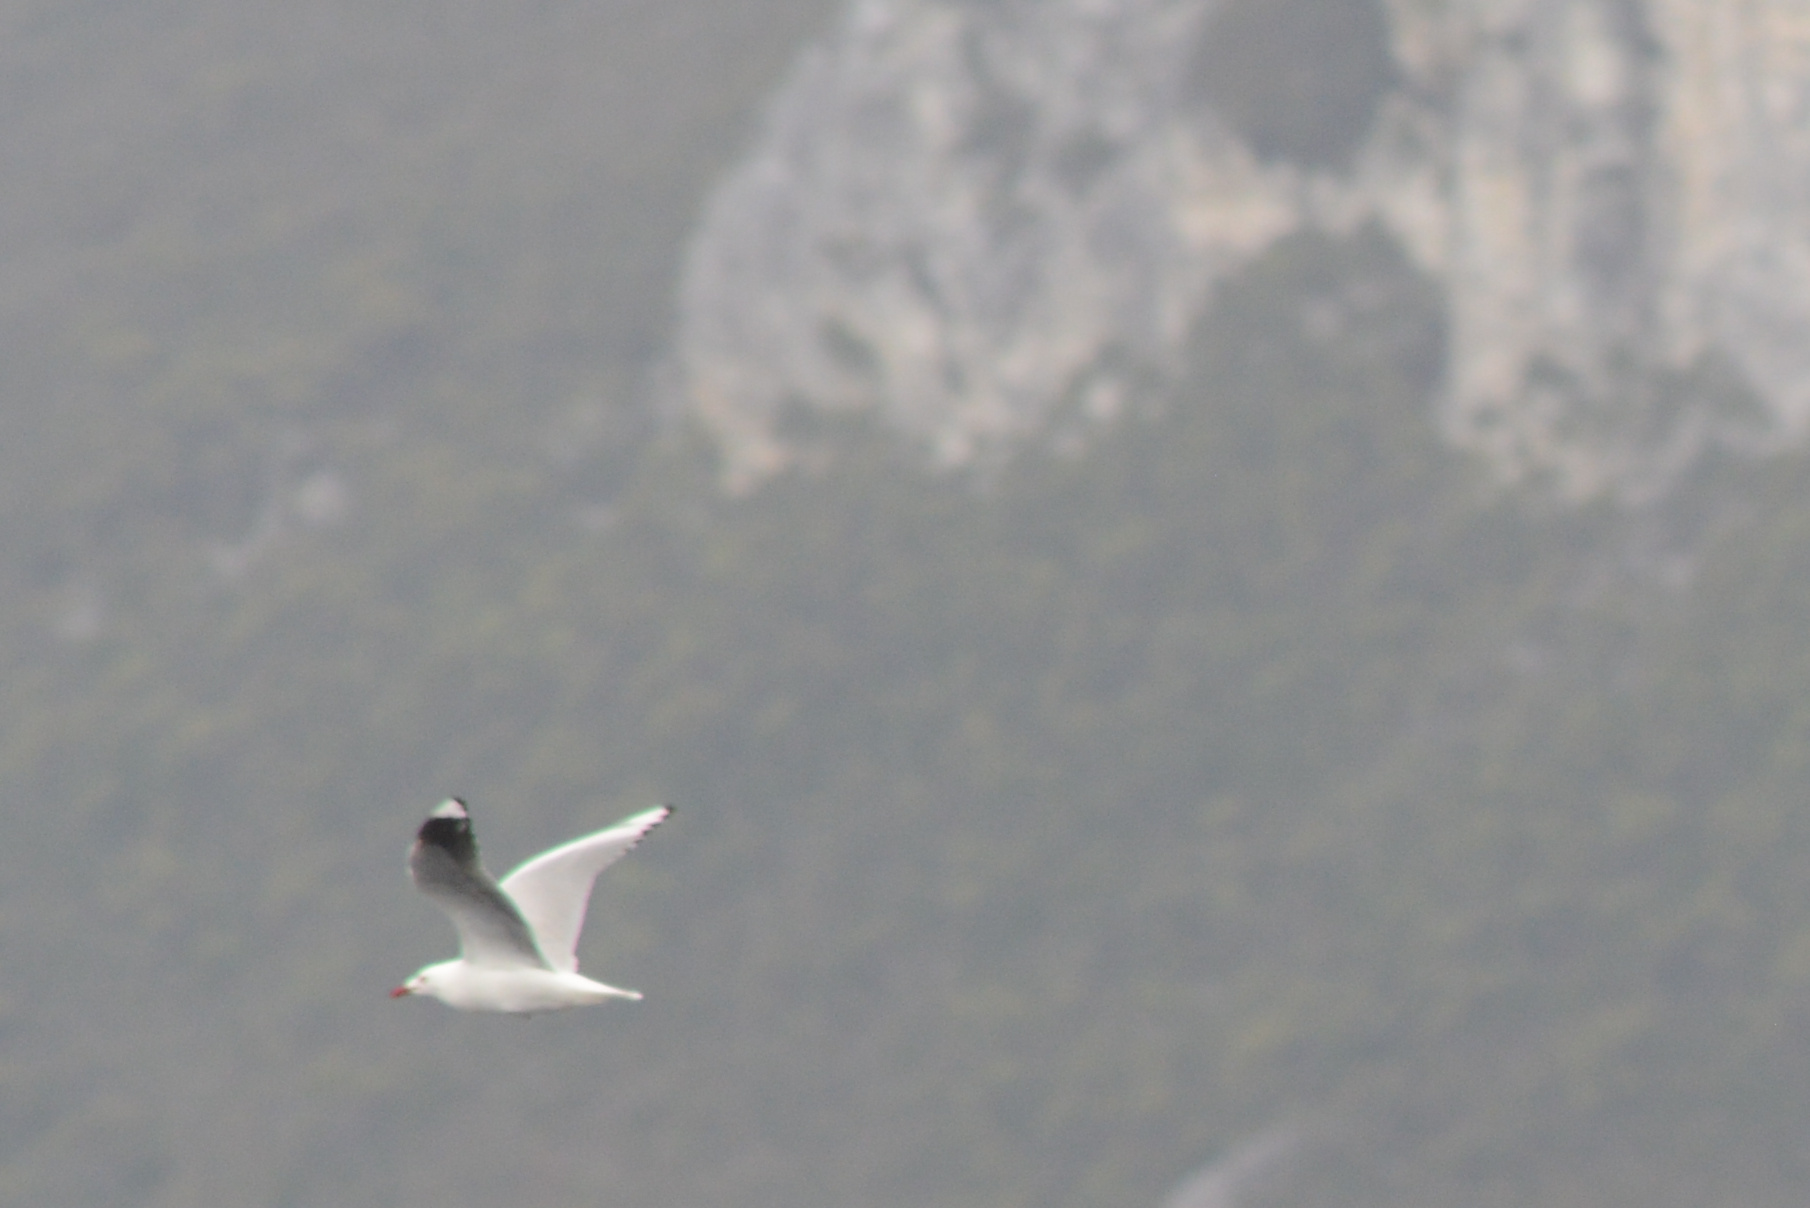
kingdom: Animalia
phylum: Chordata
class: Aves
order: Charadriiformes
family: Laridae
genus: Chroicocephalus
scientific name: Chroicocephalus novaehollandiae
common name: Silver gull
